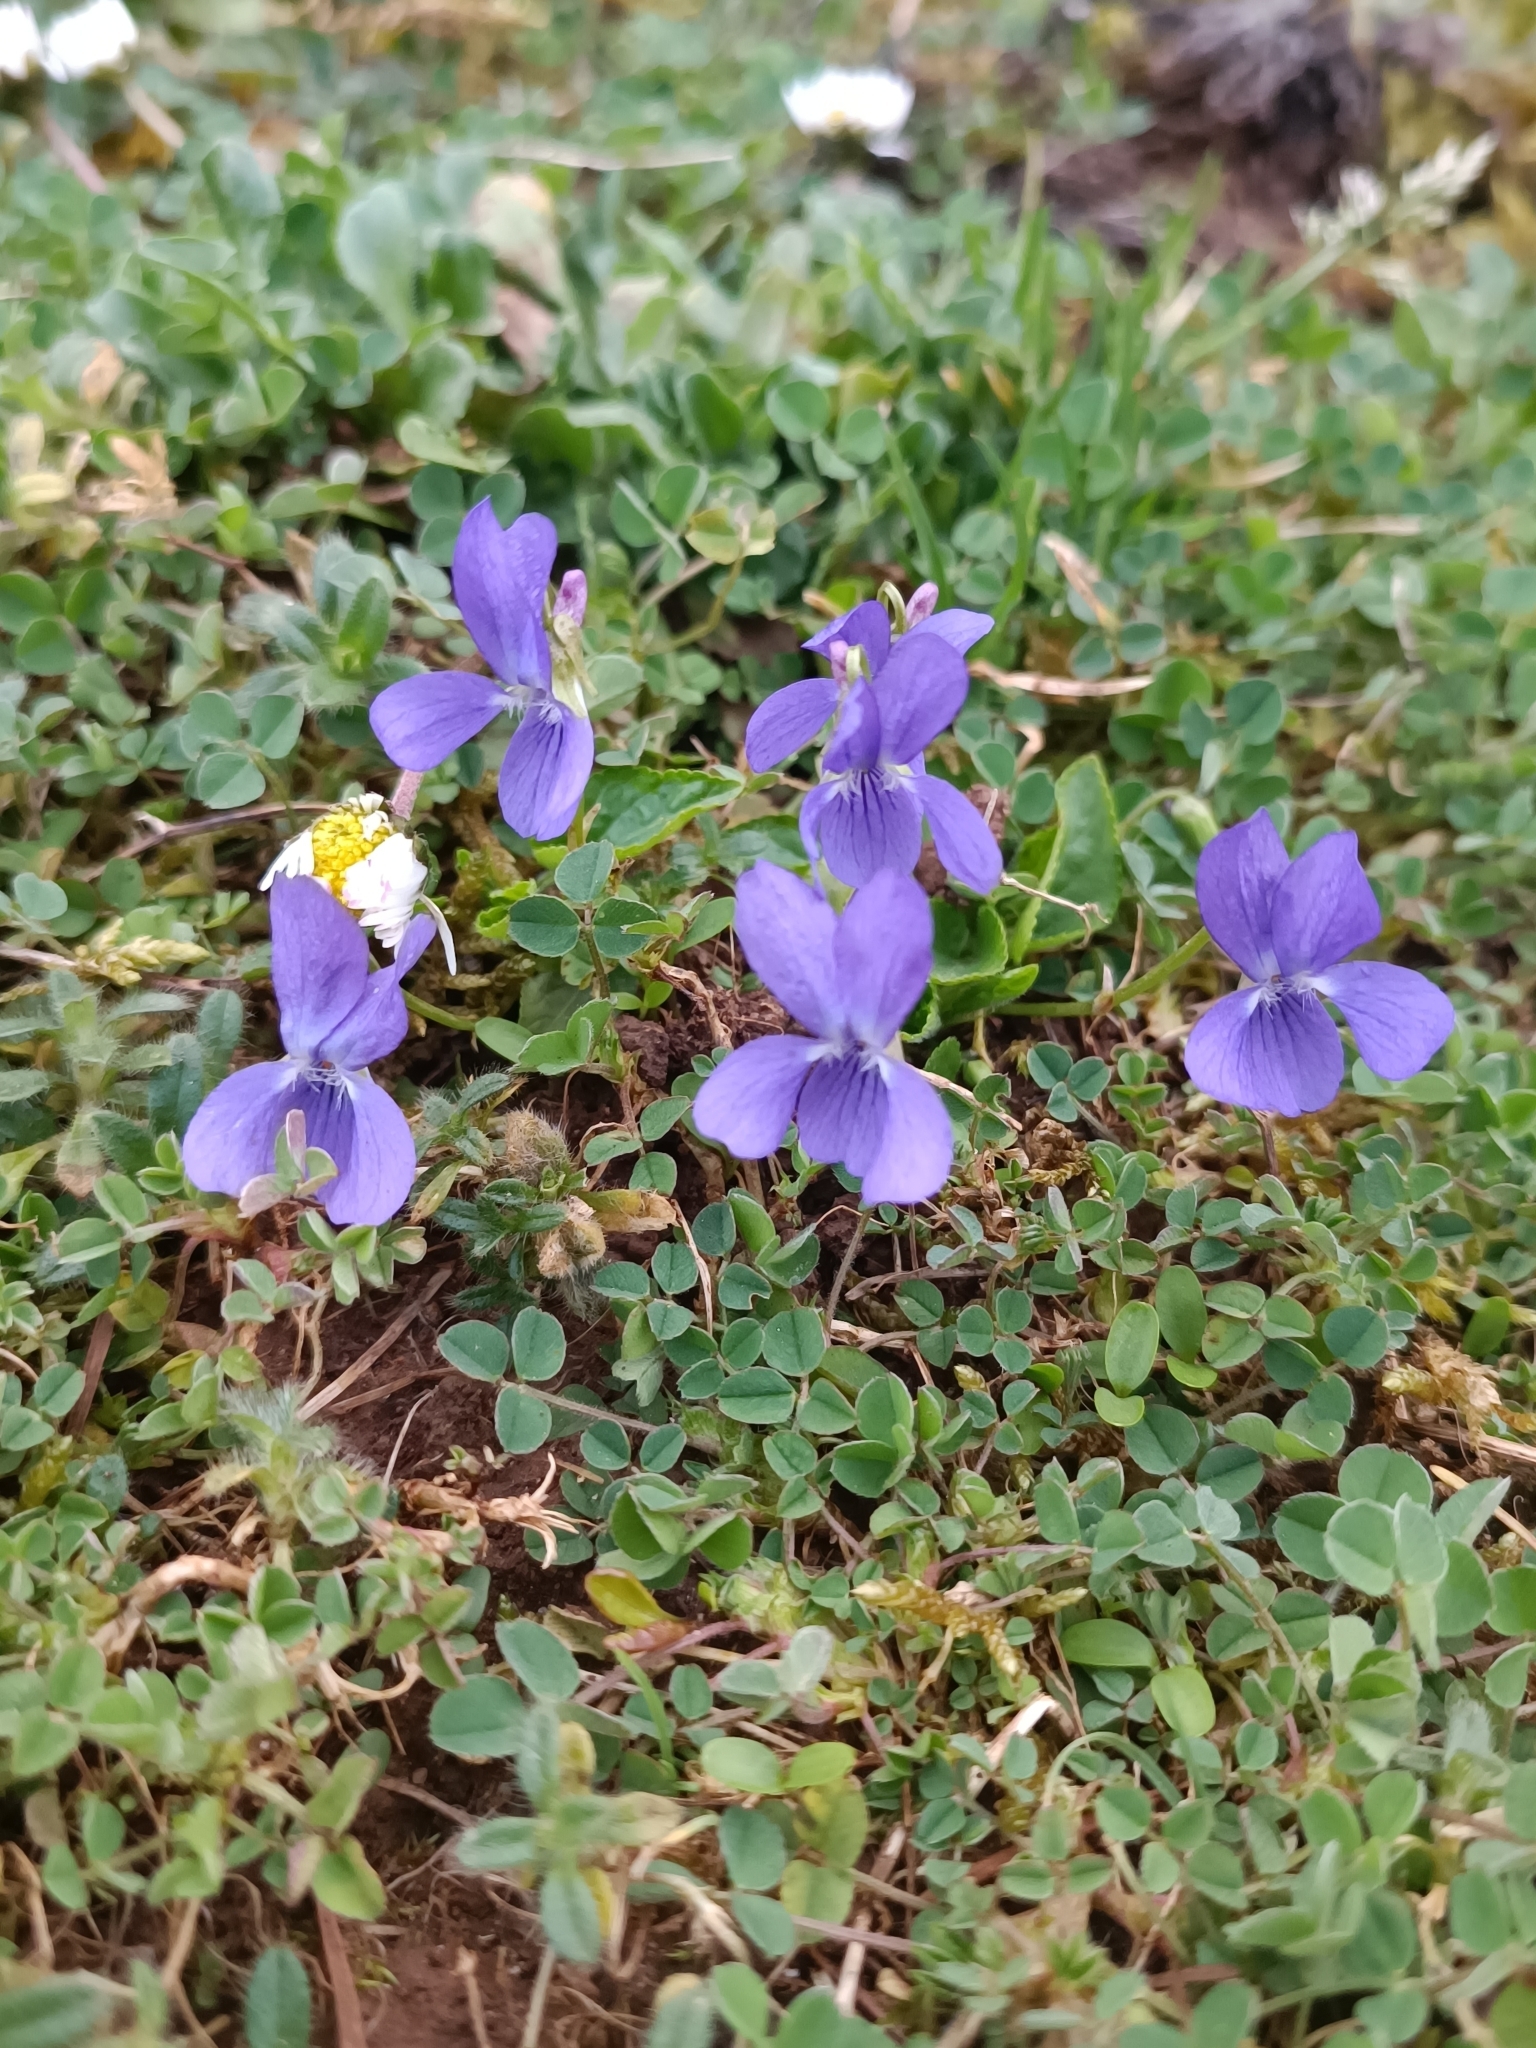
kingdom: Plantae
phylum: Tracheophyta
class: Magnoliopsida
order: Malpighiales
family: Violaceae
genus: Viola
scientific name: Viola hirta
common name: Hairy violet
